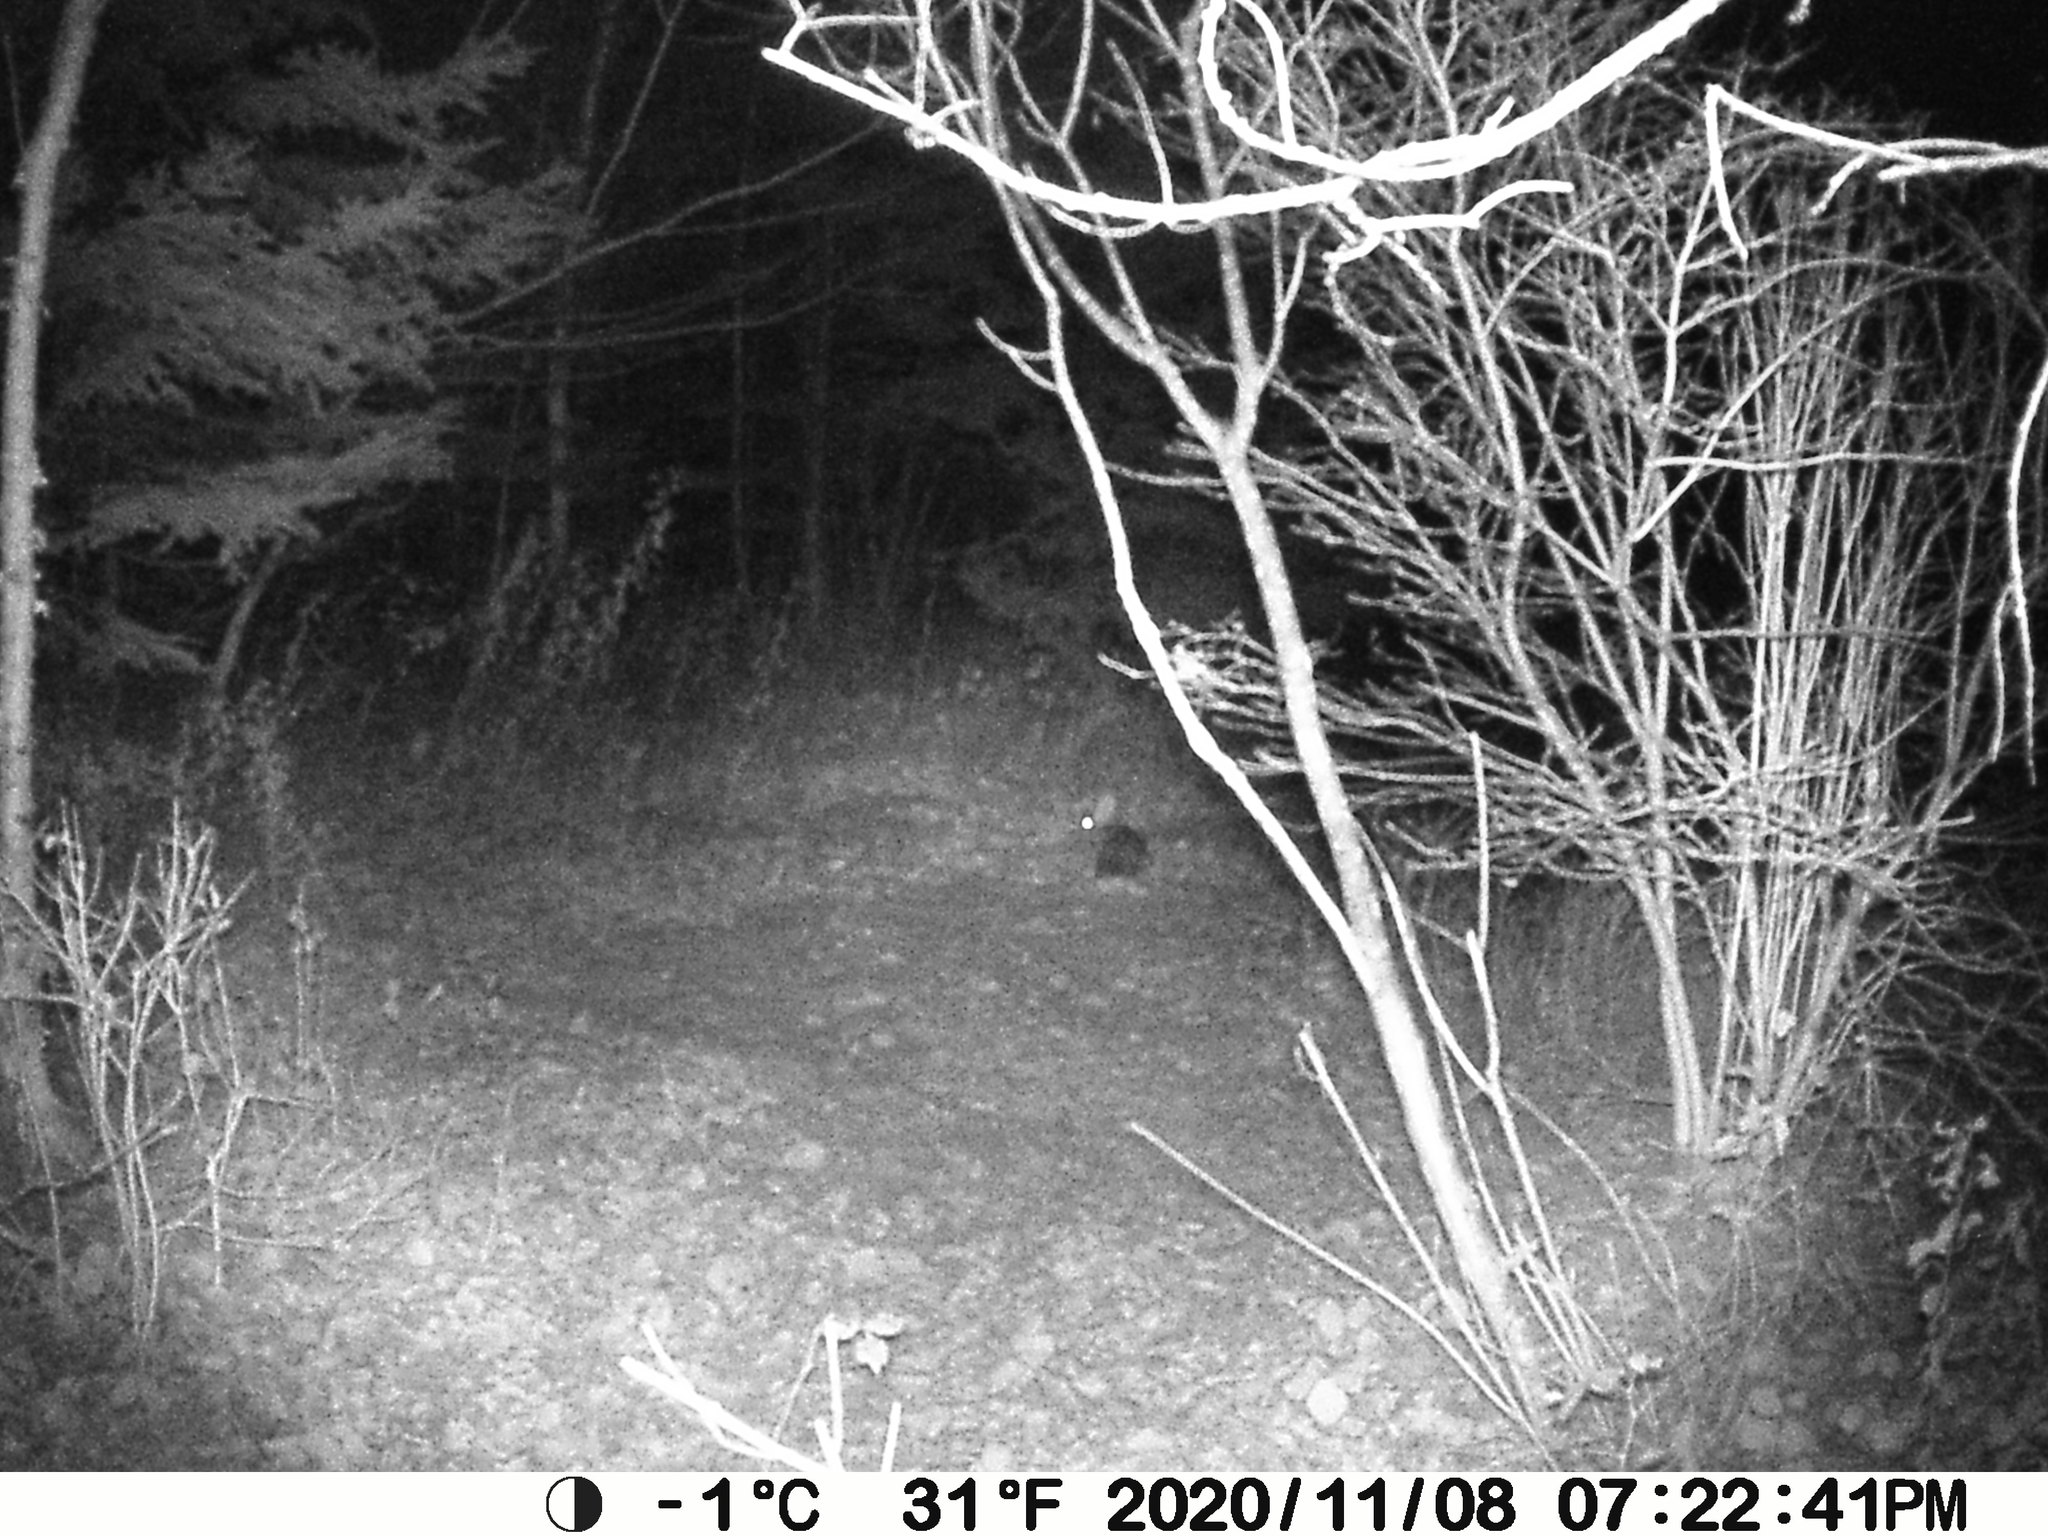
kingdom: Animalia
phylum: Chordata
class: Mammalia
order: Lagomorpha
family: Leporidae
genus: Lepus
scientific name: Lepus americanus
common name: Snowshoe hare
